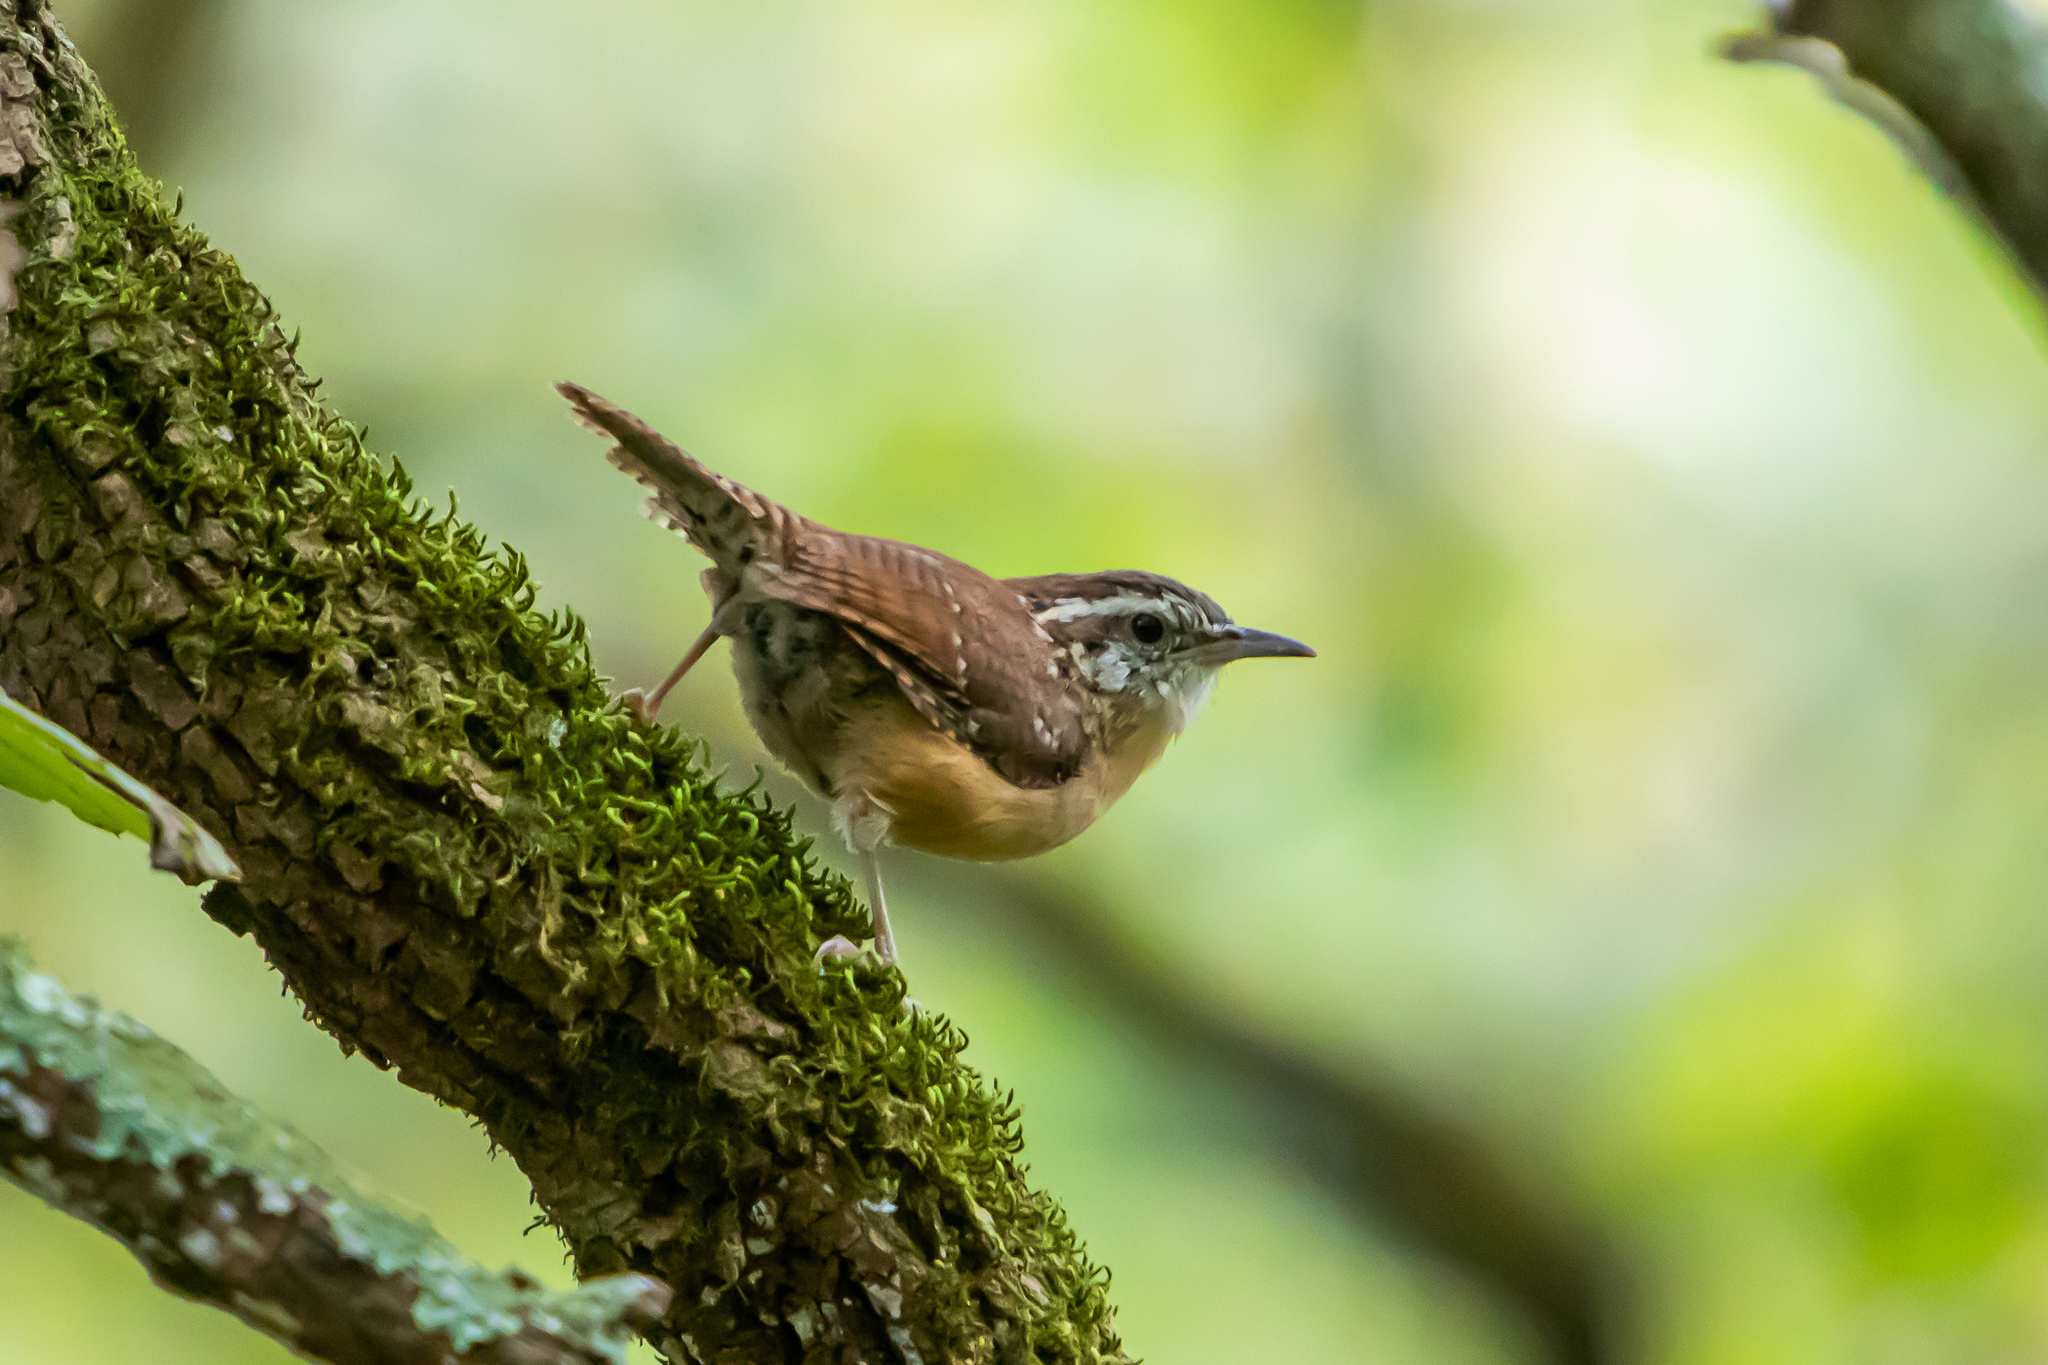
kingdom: Animalia
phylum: Chordata
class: Aves
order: Passeriformes
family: Troglodytidae
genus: Thryothorus
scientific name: Thryothorus ludovicianus
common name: Carolina wren
